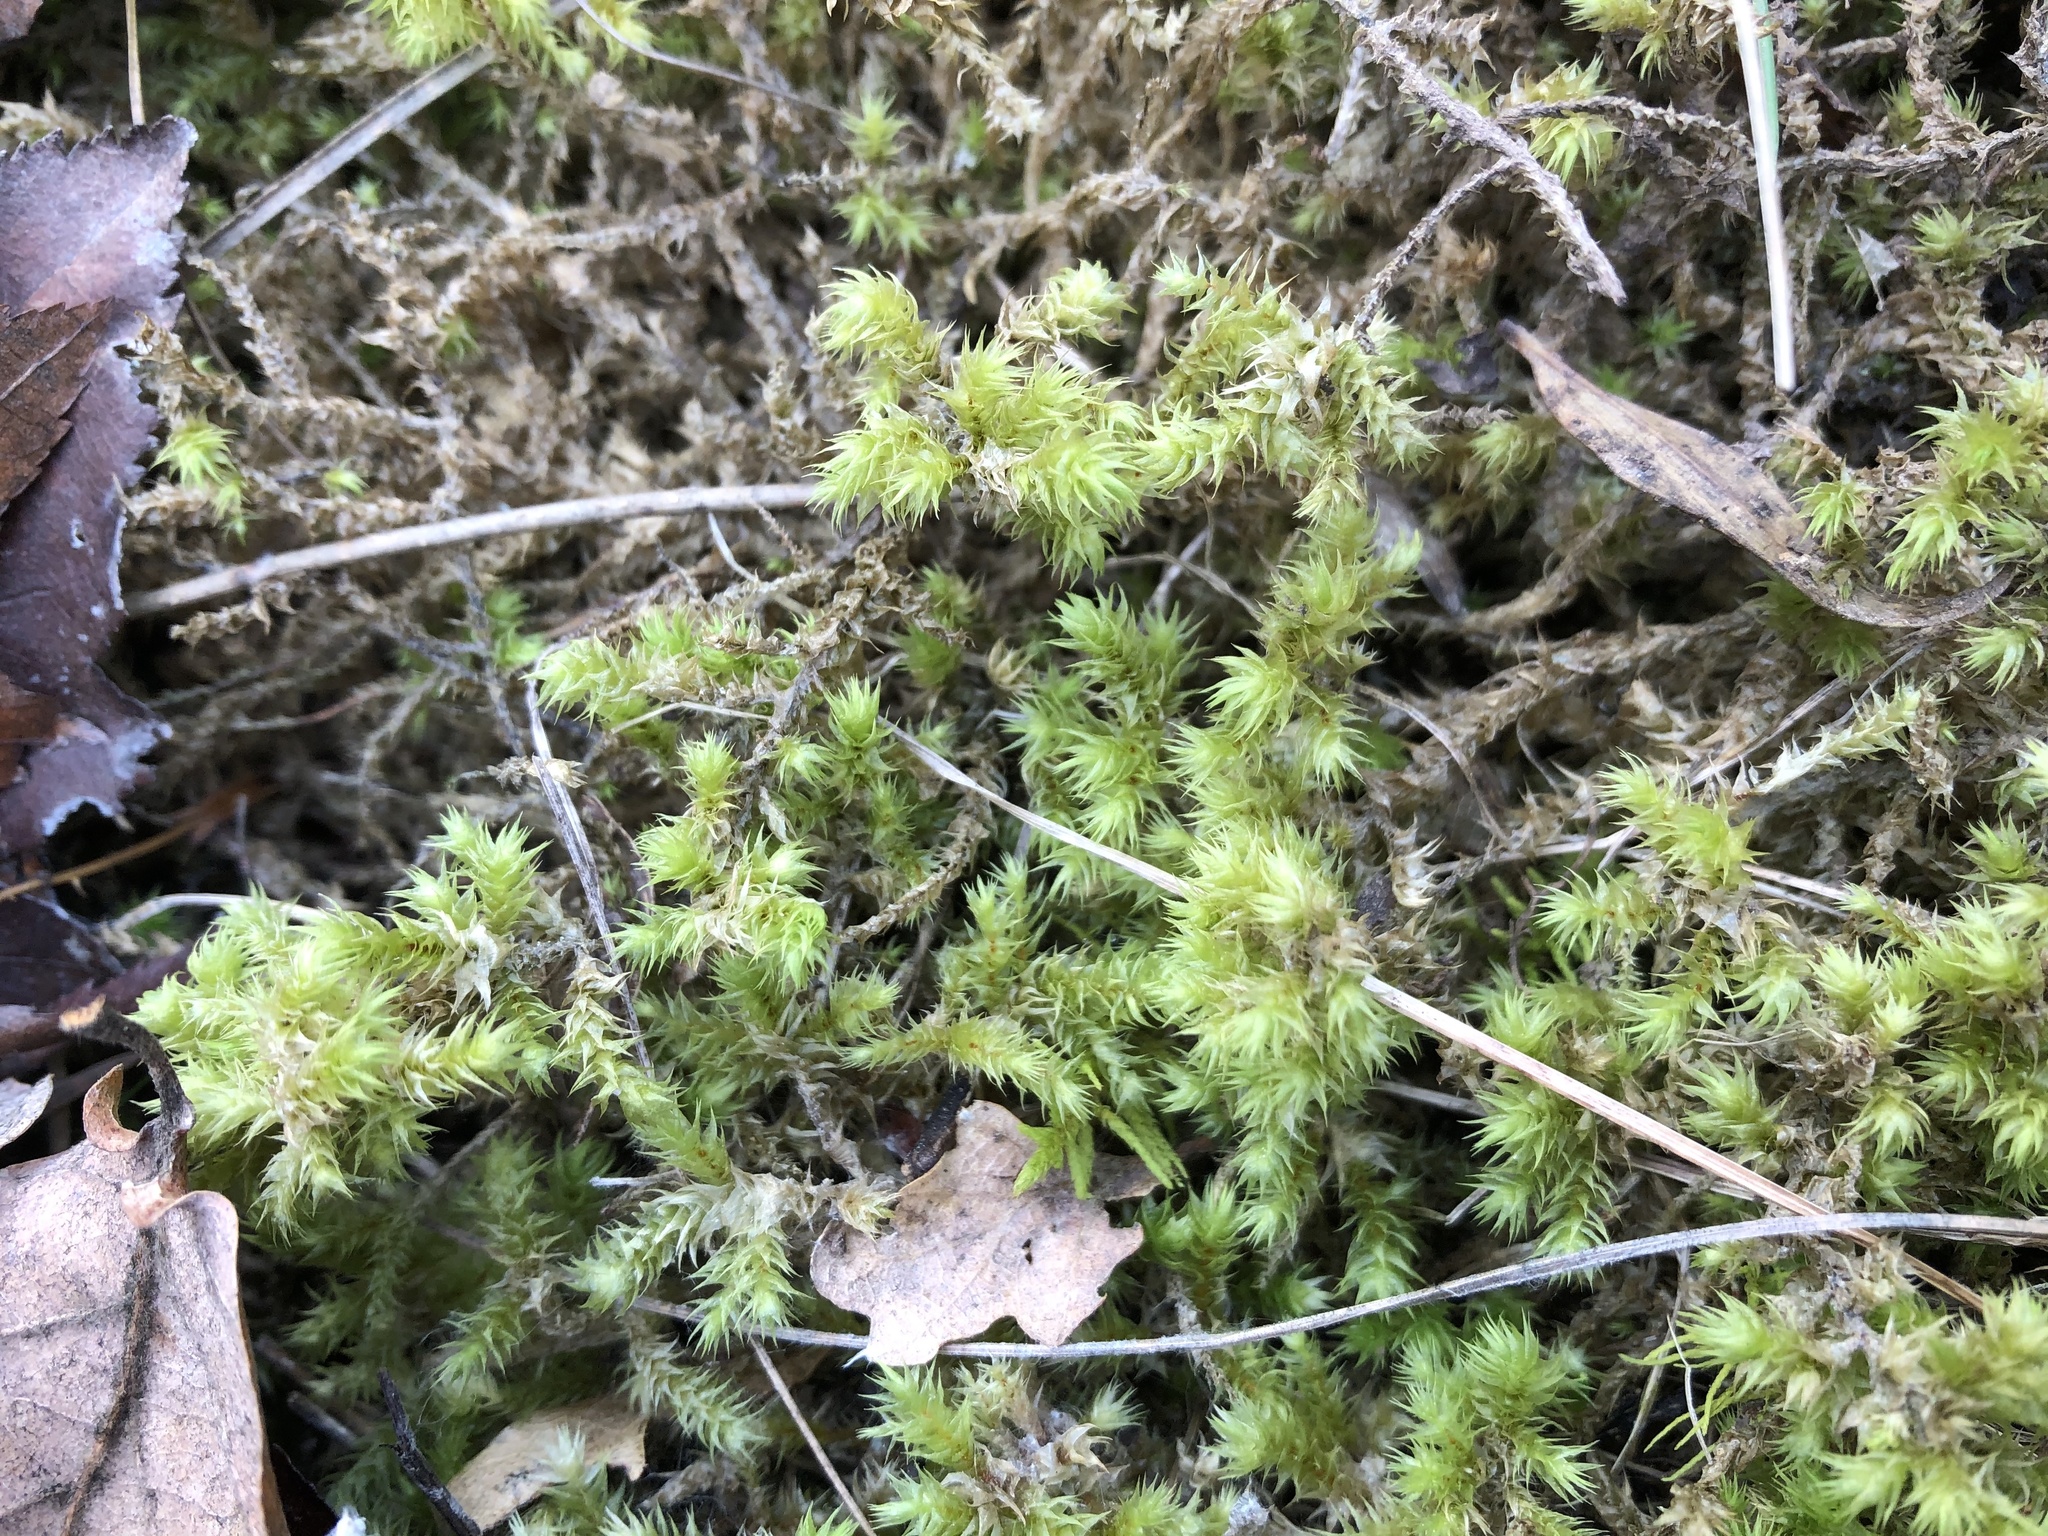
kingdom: Plantae
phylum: Bryophyta
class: Bryopsida
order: Hypnales
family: Hylocomiaceae
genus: Hylocomiadelphus
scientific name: Hylocomiadelphus triquetrus
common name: Rough goose neck moss
